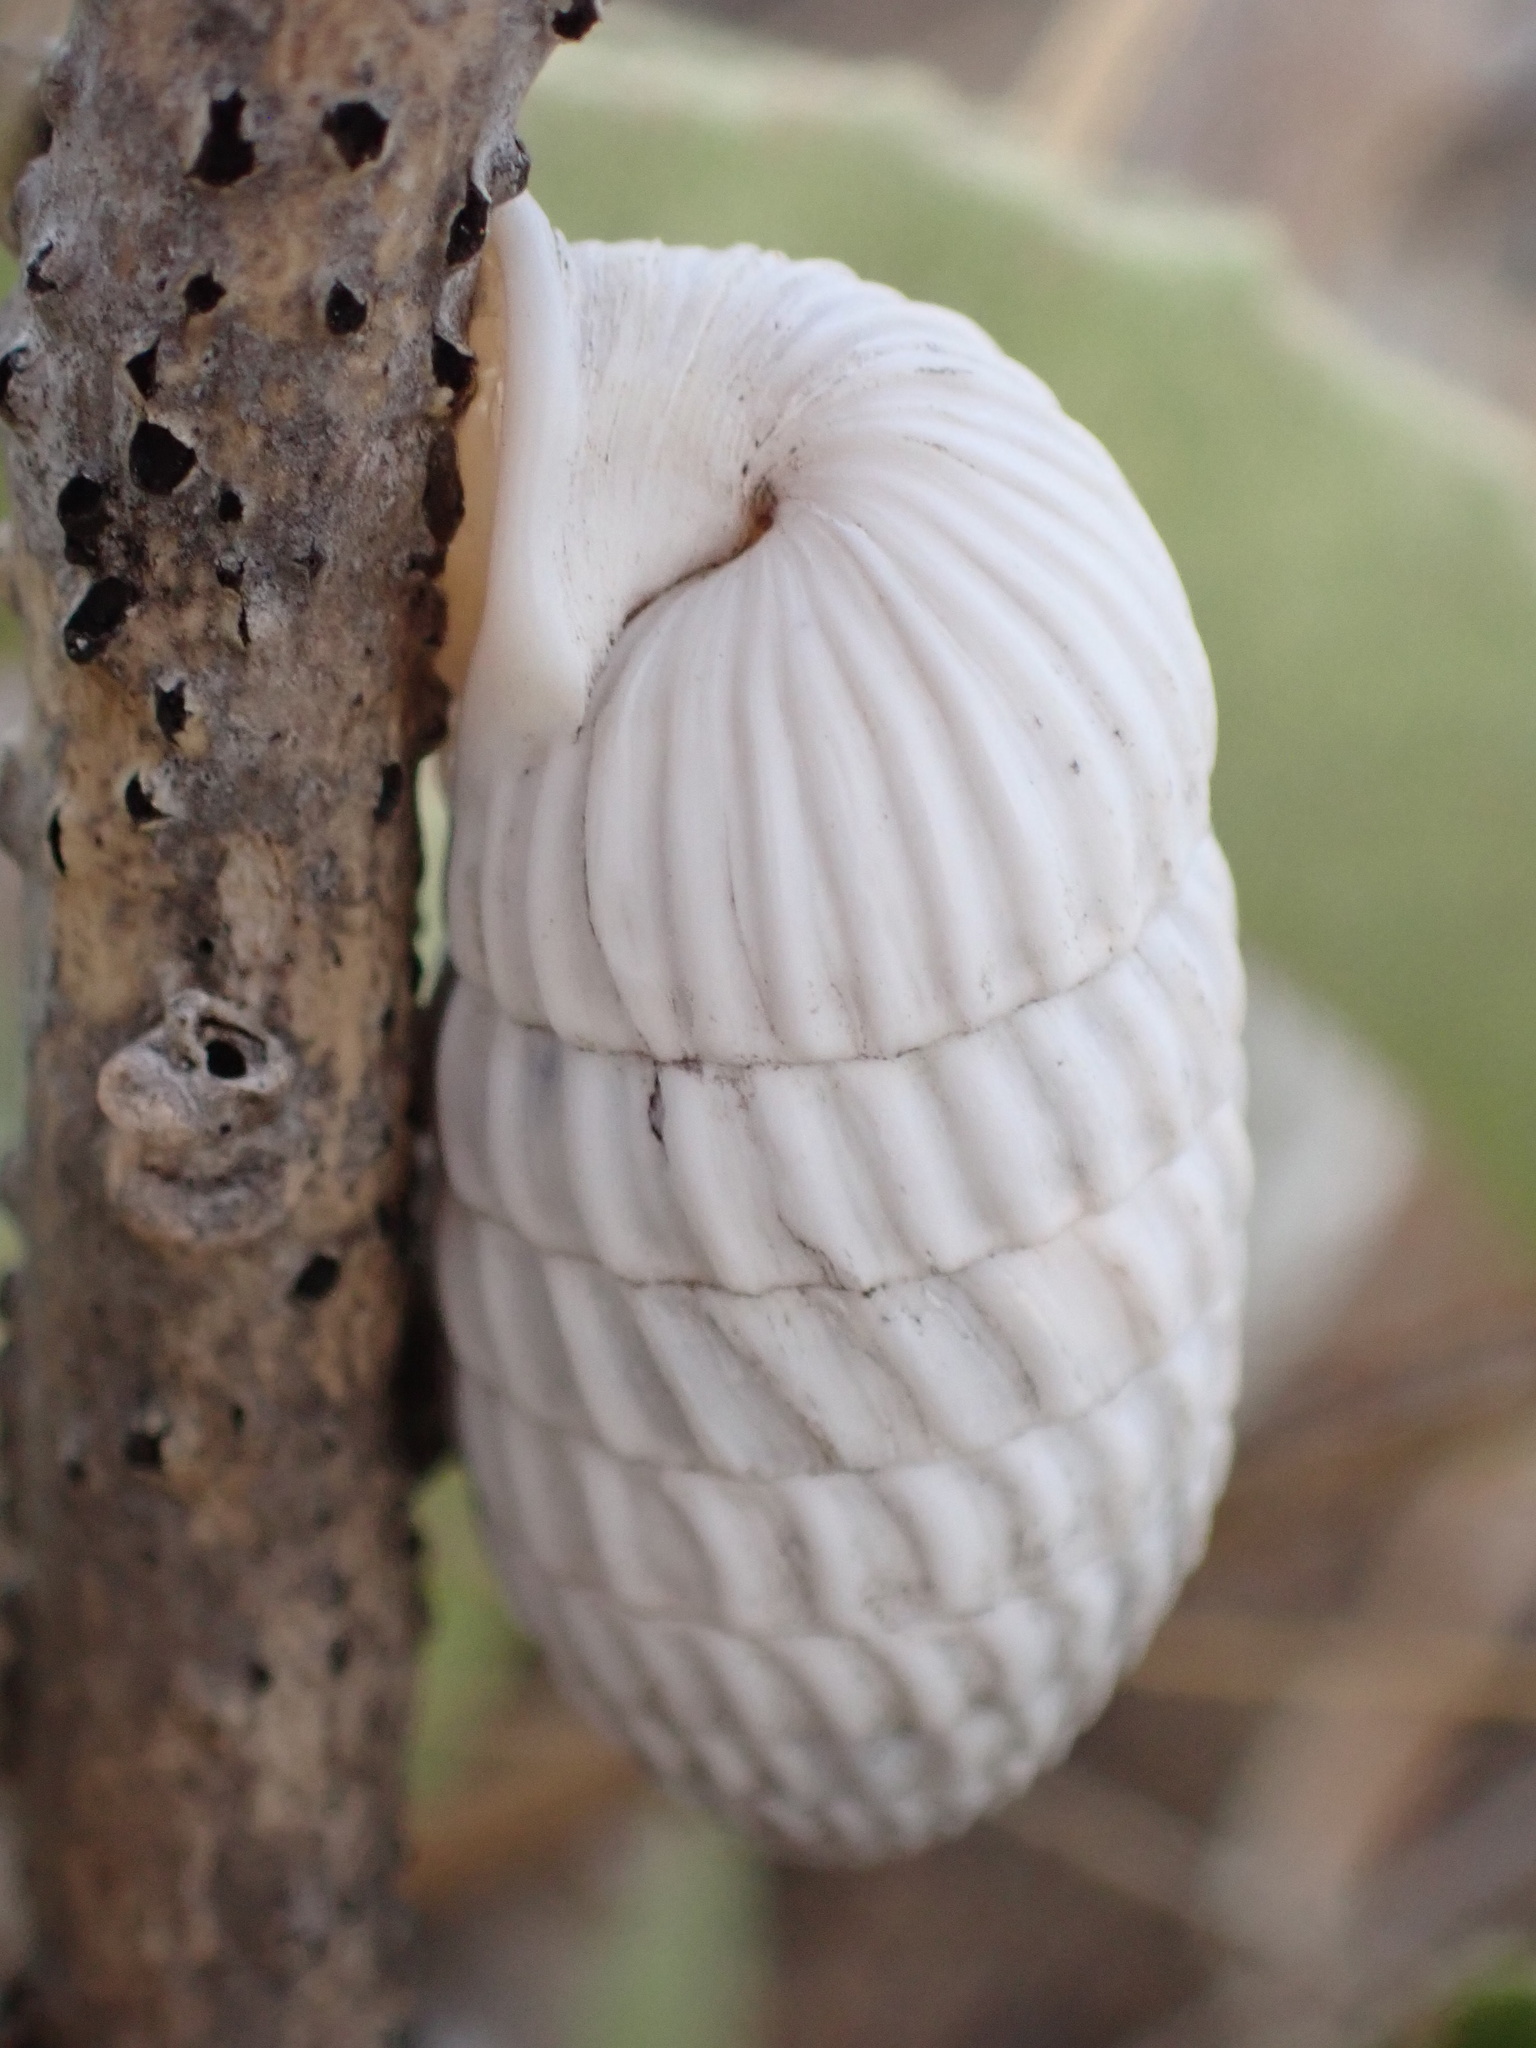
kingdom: Animalia
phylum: Mollusca
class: Gastropoda
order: Stylommatophora
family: Cerionidae
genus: Cerion
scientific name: Cerion uva
